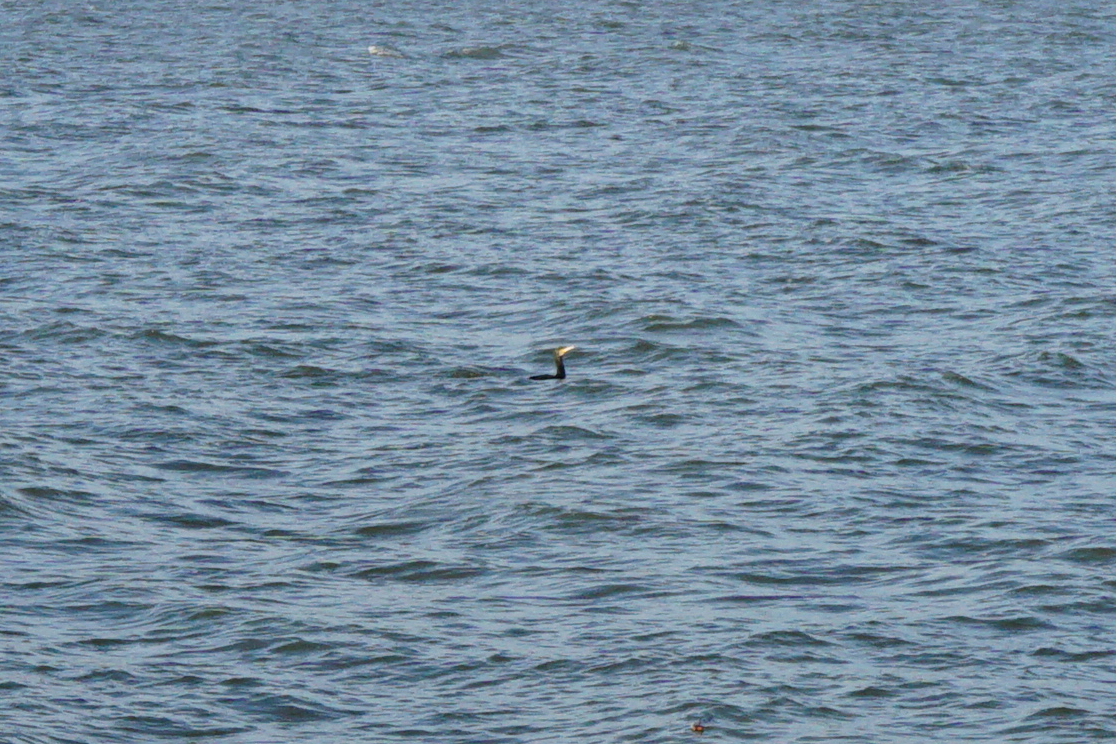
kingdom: Animalia
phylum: Chordata
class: Aves
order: Suliformes
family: Phalacrocoracidae
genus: Phalacrocorax
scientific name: Phalacrocorax carbo
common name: Great cormorant
